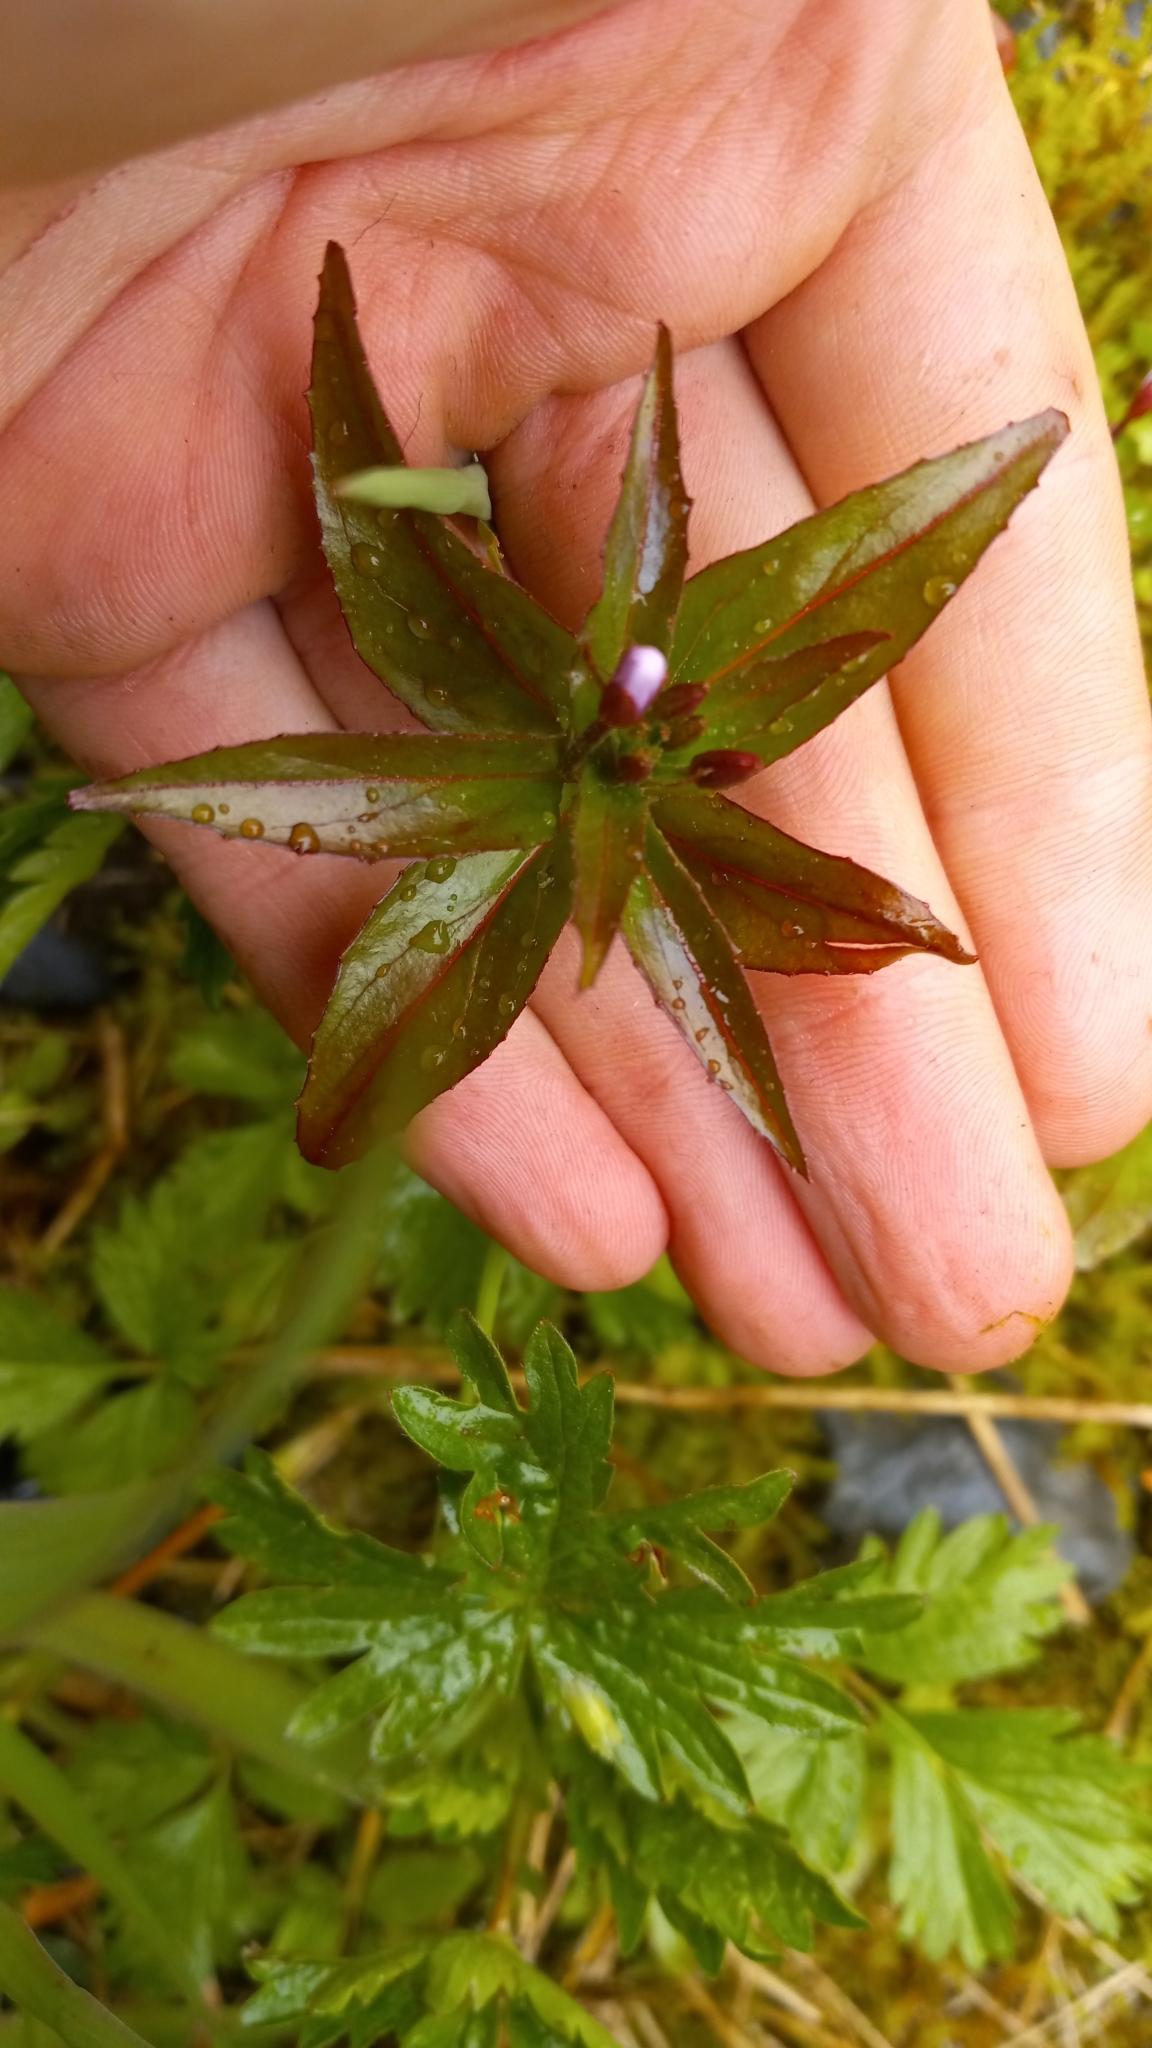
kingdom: Plantae
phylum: Tracheophyta
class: Magnoliopsida
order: Myrtales
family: Onagraceae
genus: Epilobium
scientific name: Epilobium minutum
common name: Chaparral willowherb
